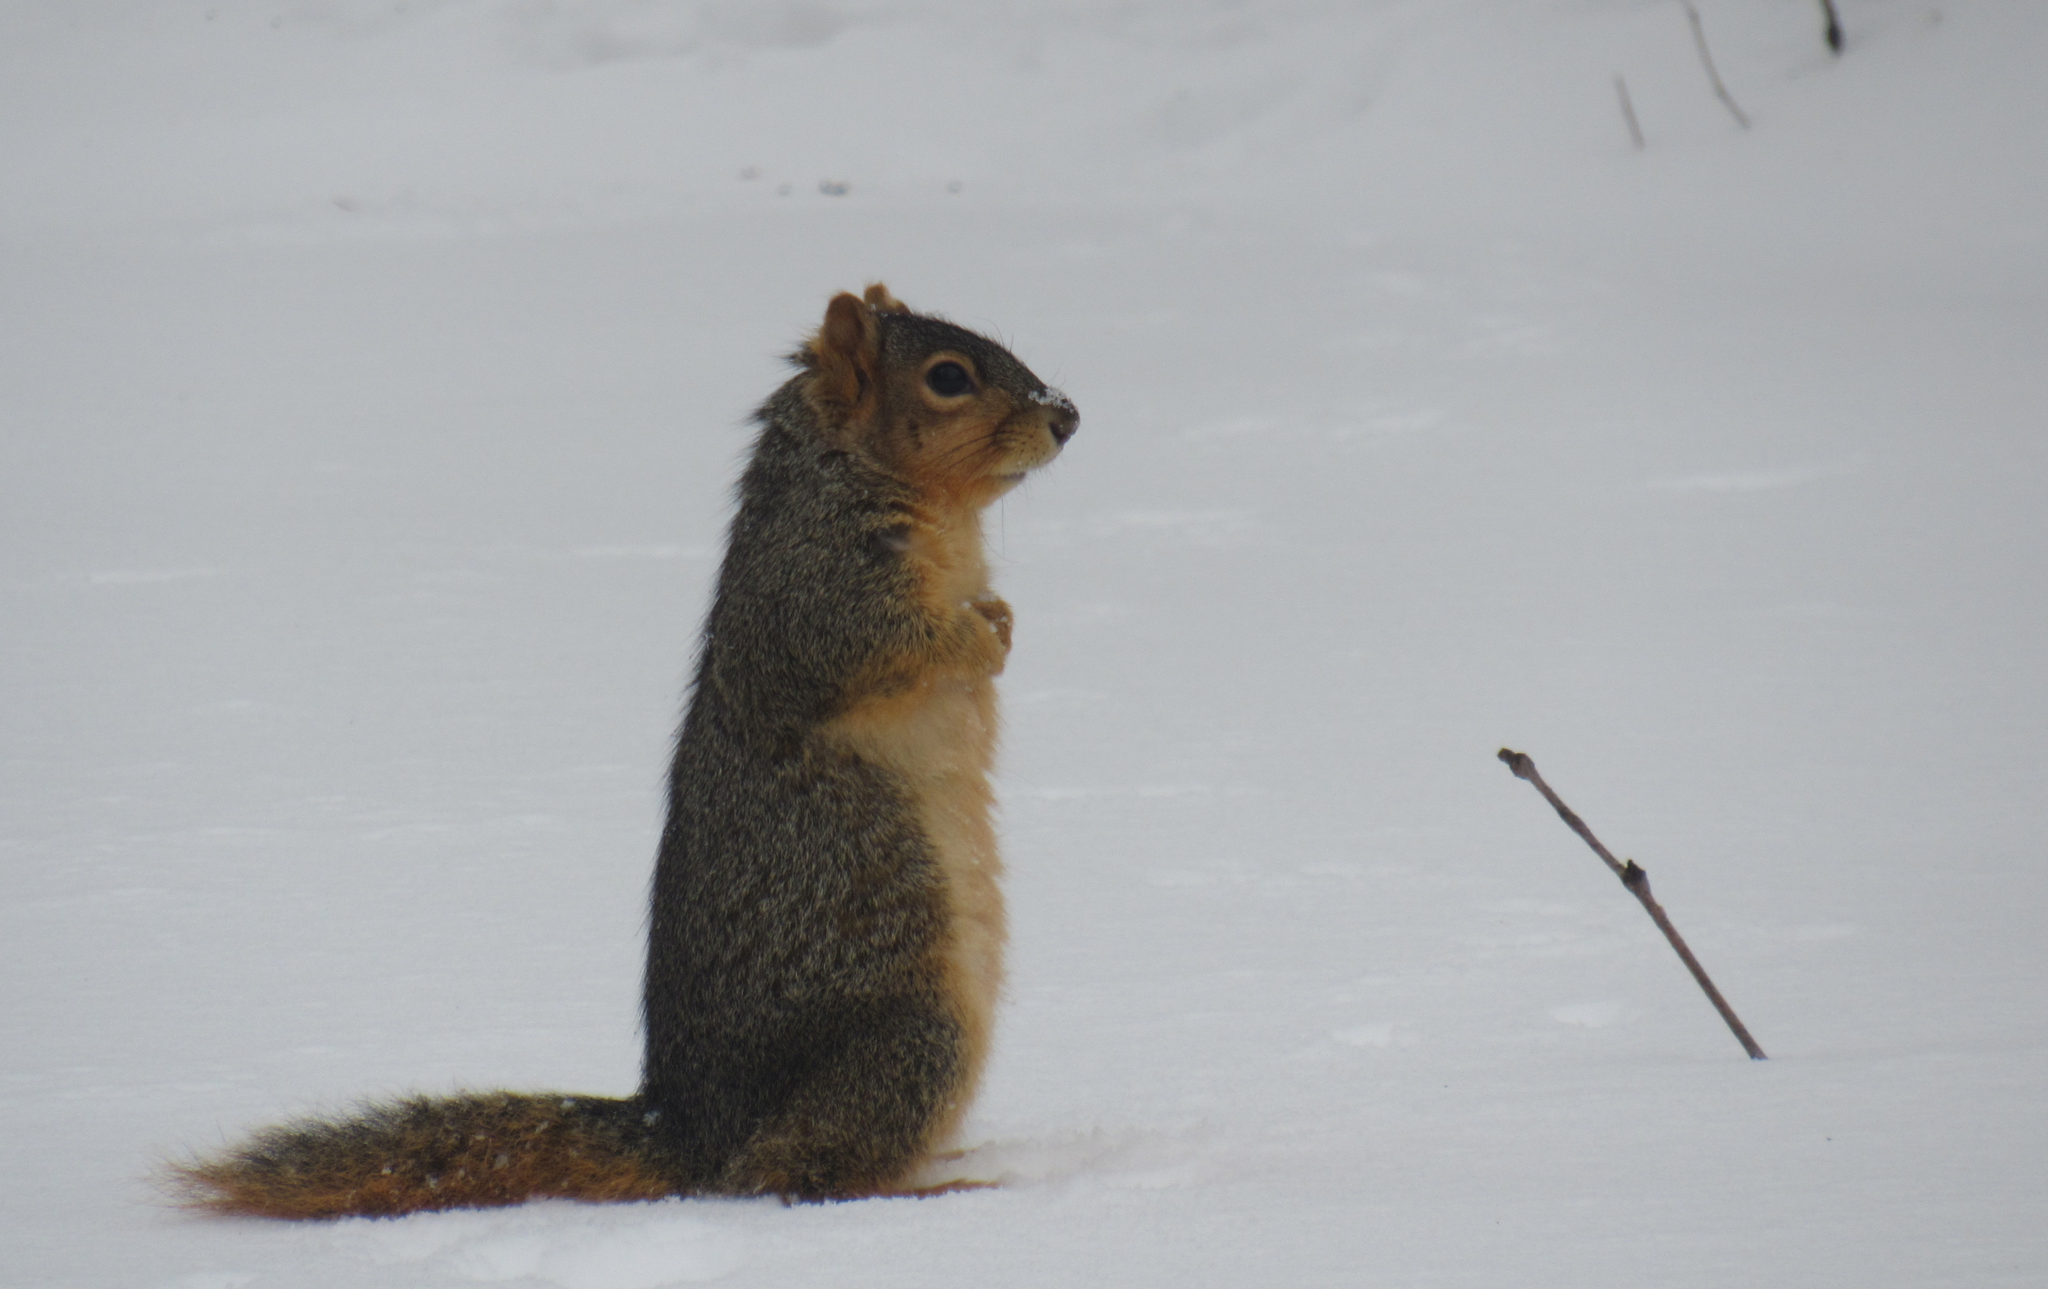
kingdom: Animalia
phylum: Chordata
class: Mammalia
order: Rodentia
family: Sciuridae
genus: Sciurus
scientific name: Sciurus niger
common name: Fox squirrel
